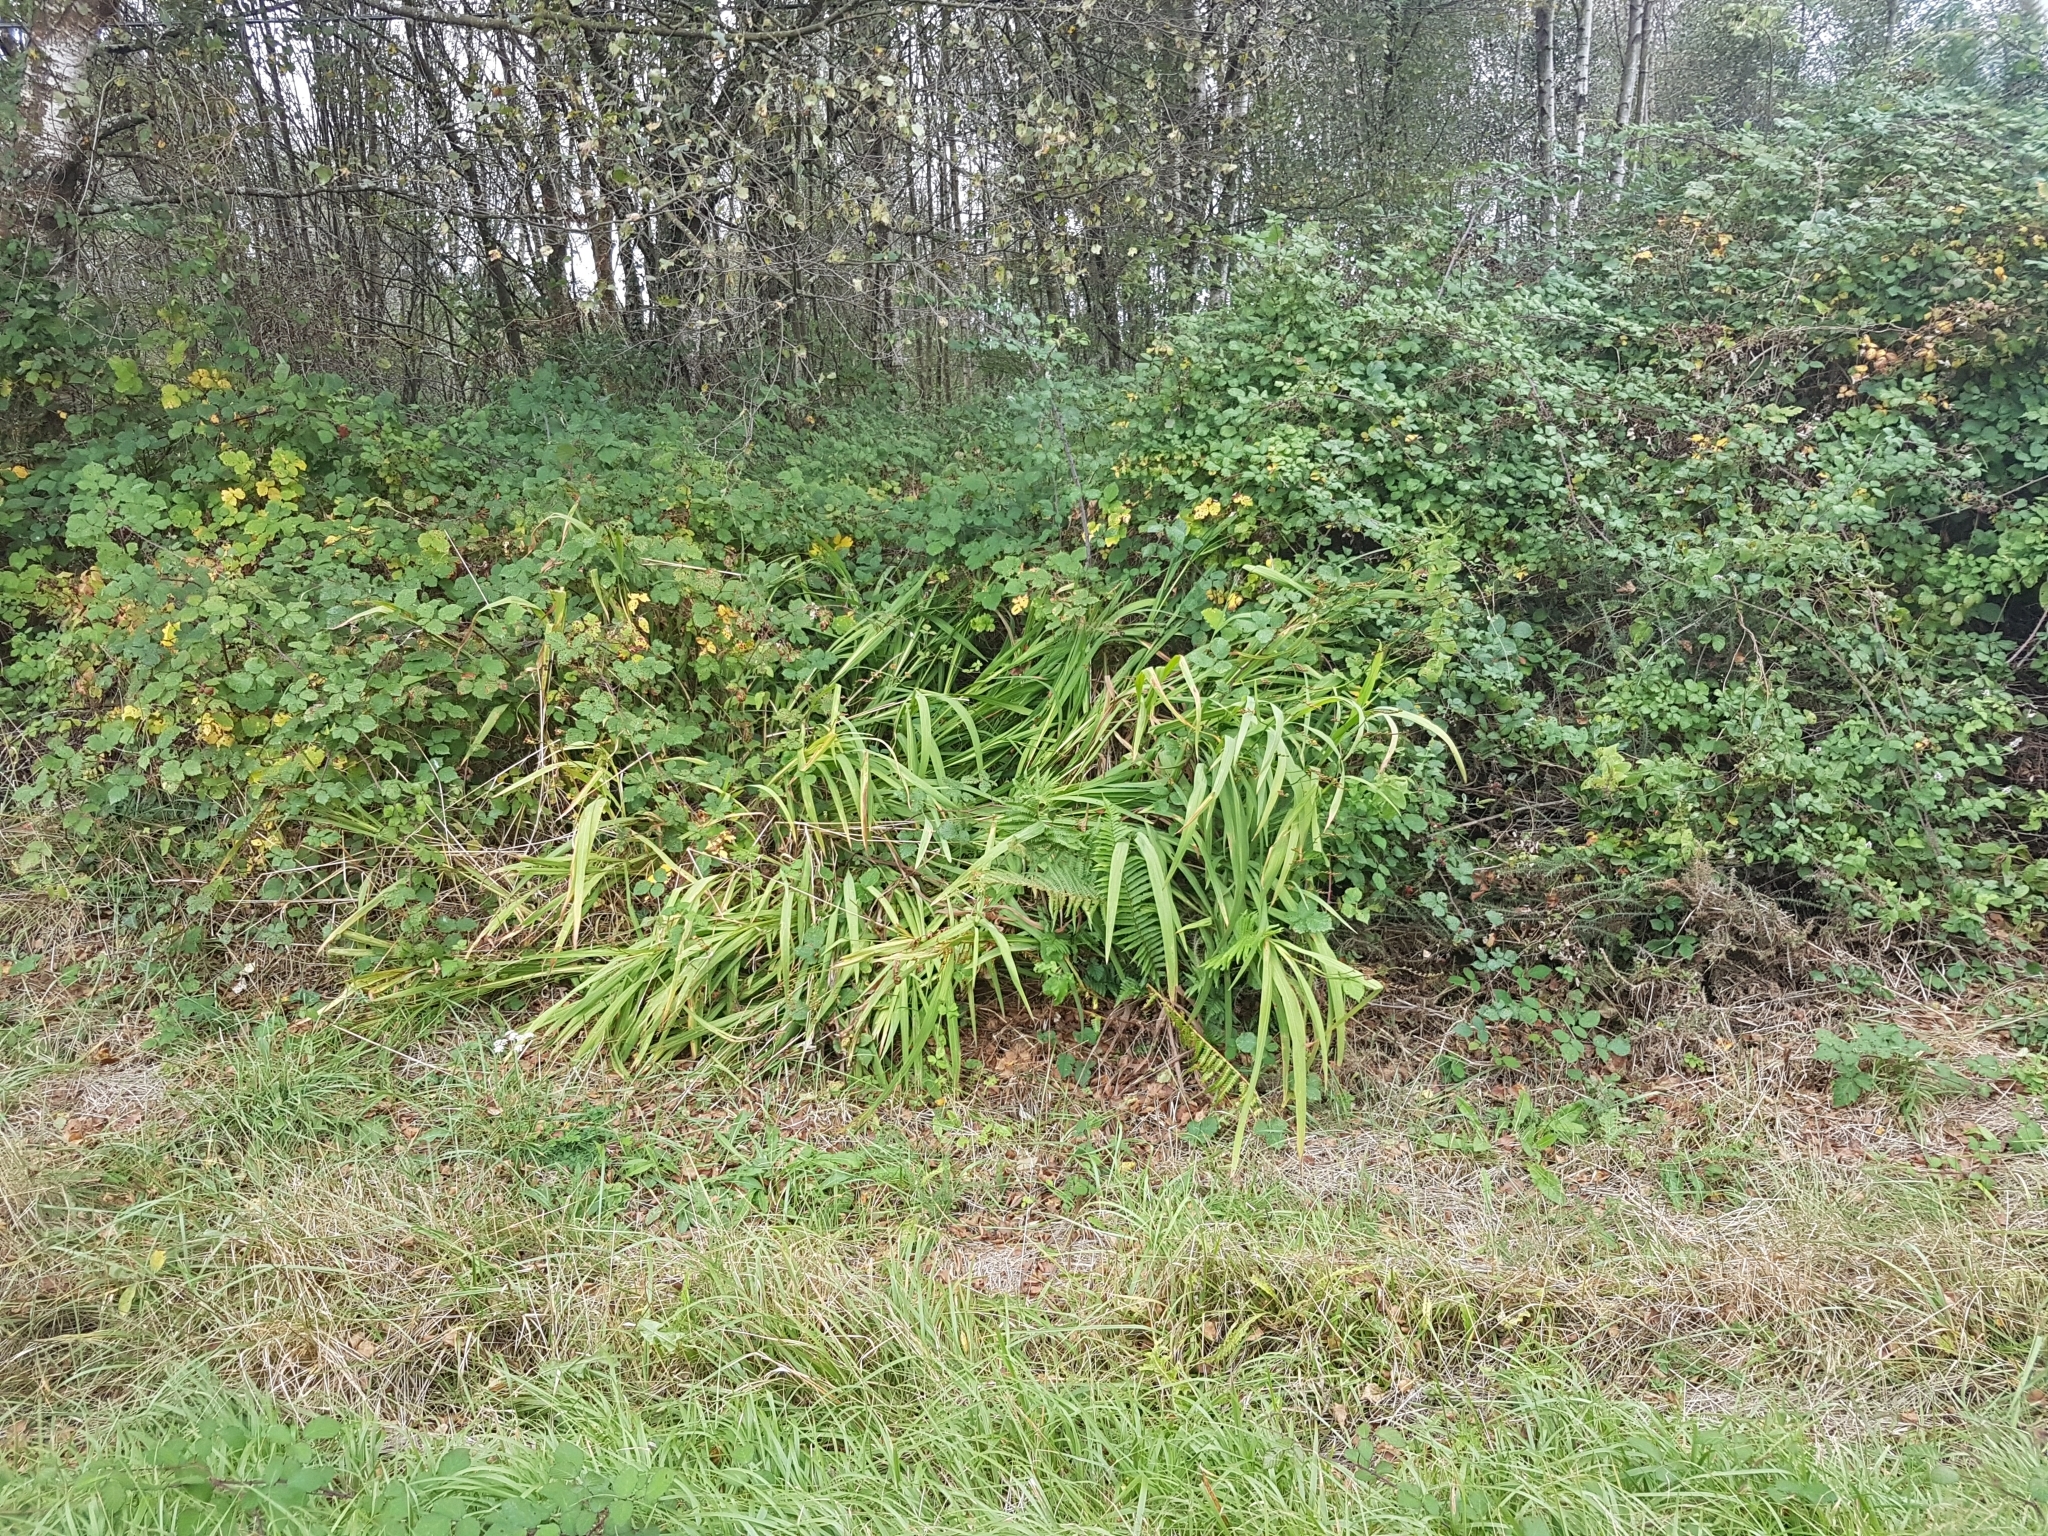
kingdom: Plantae
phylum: Tracheophyta
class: Liliopsida
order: Asparagales
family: Iridaceae
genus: Crocosmia
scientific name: Crocosmia crocosmiiflora
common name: Montbretia
